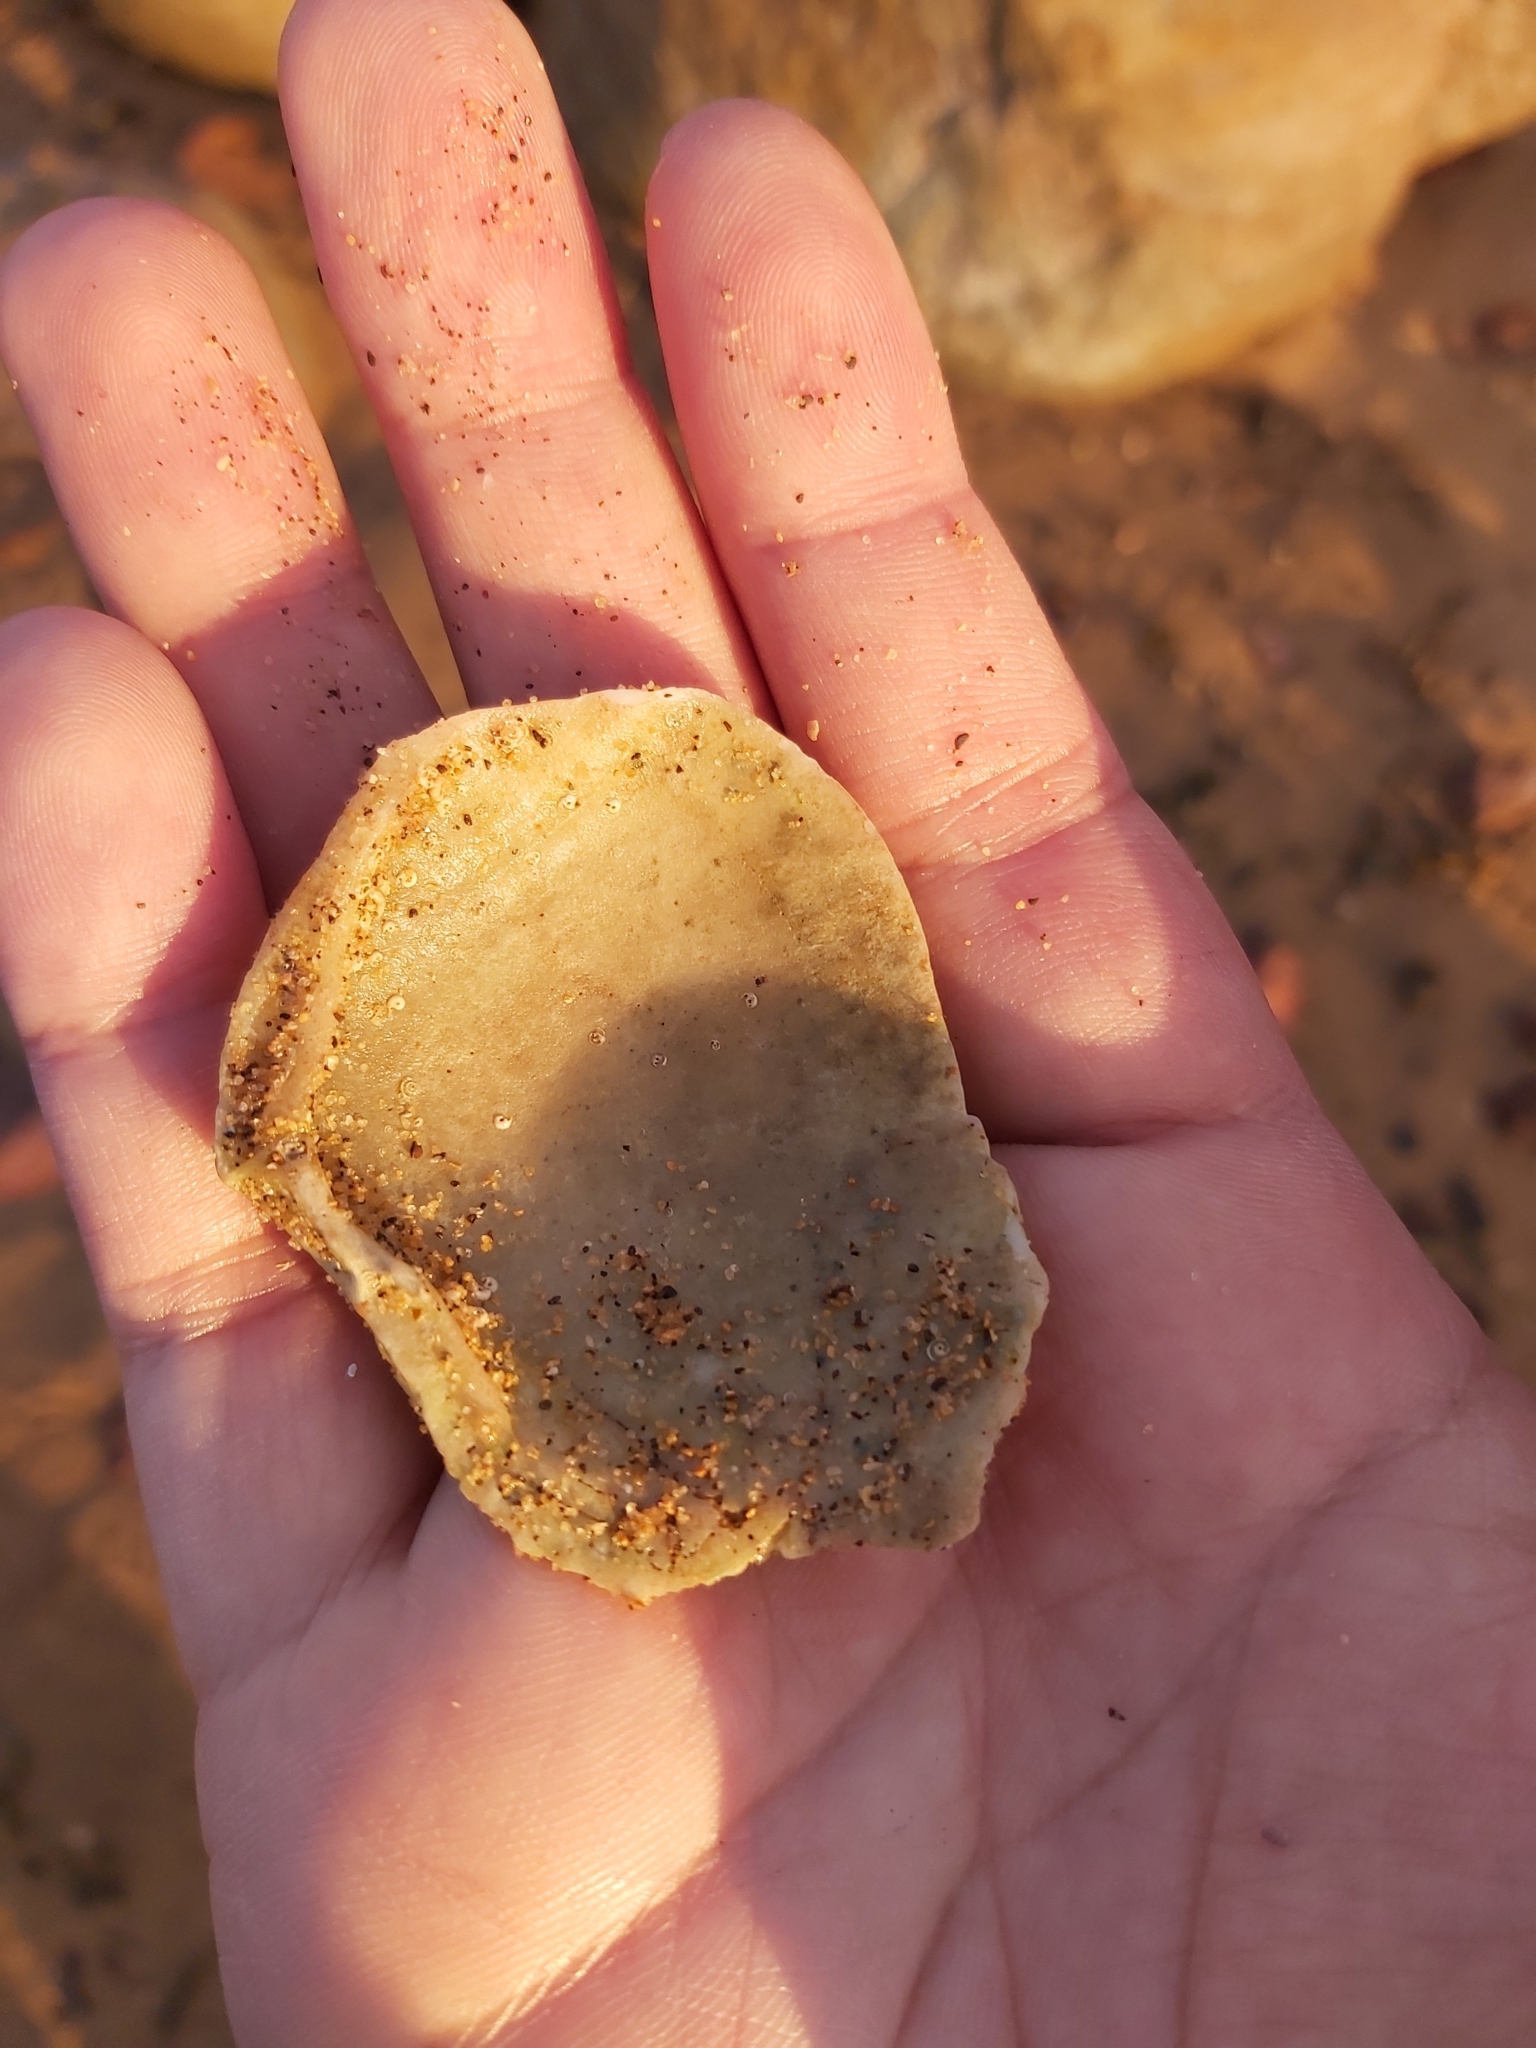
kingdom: Animalia
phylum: Mollusca
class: Bivalvia
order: Lucinida
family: Lucinidae
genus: Codakia
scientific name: Codakia rugifera
